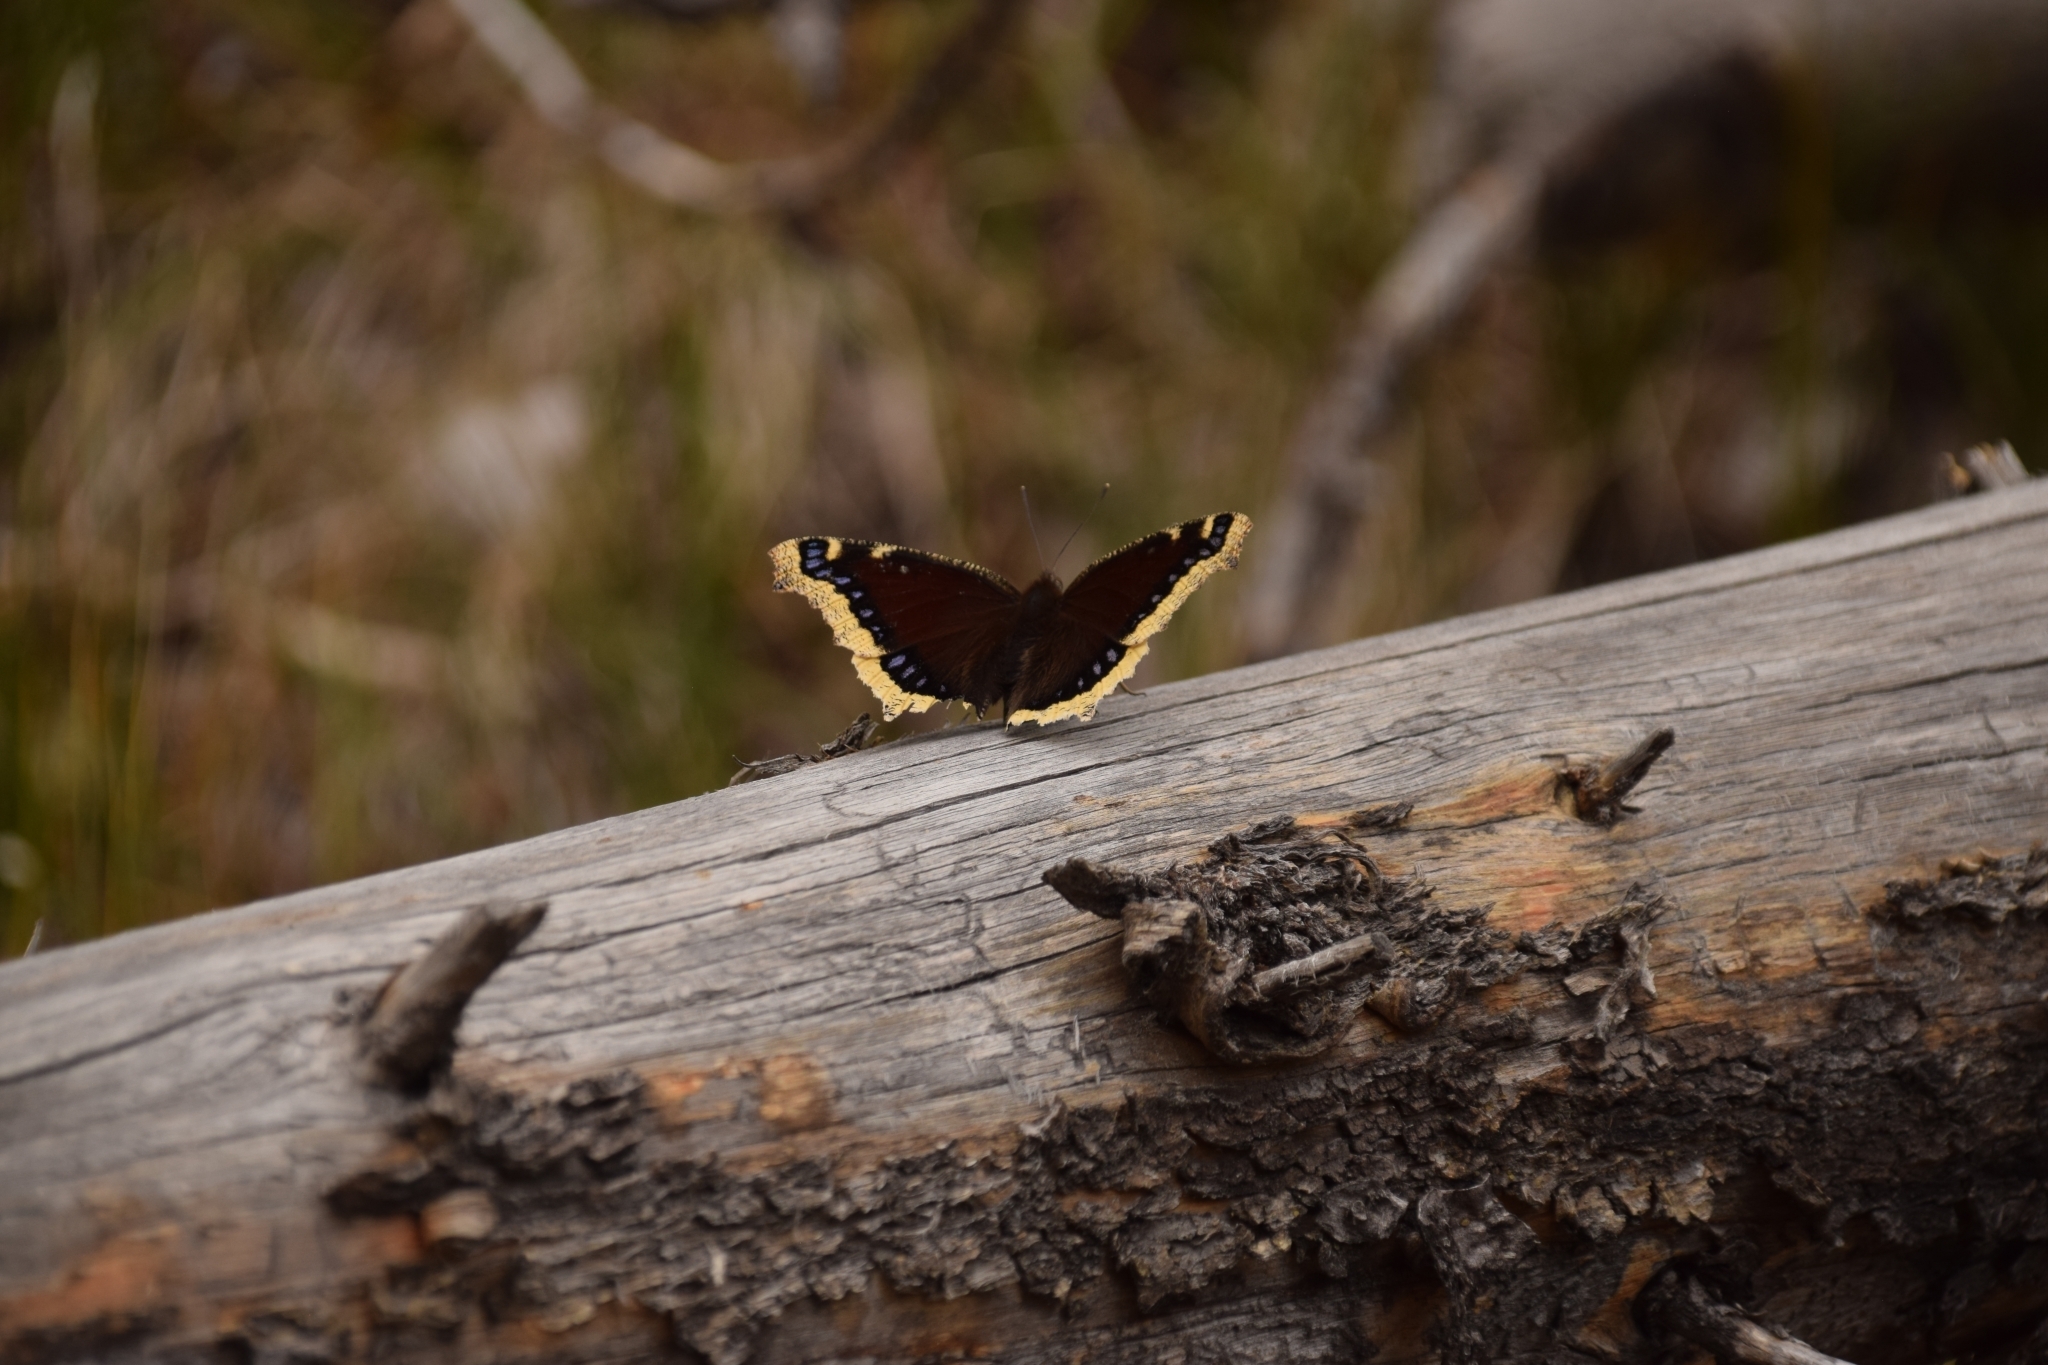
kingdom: Animalia
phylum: Arthropoda
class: Insecta
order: Lepidoptera
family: Nymphalidae
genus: Nymphalis
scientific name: Nymphalis antiopa
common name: Camberwell beauty
